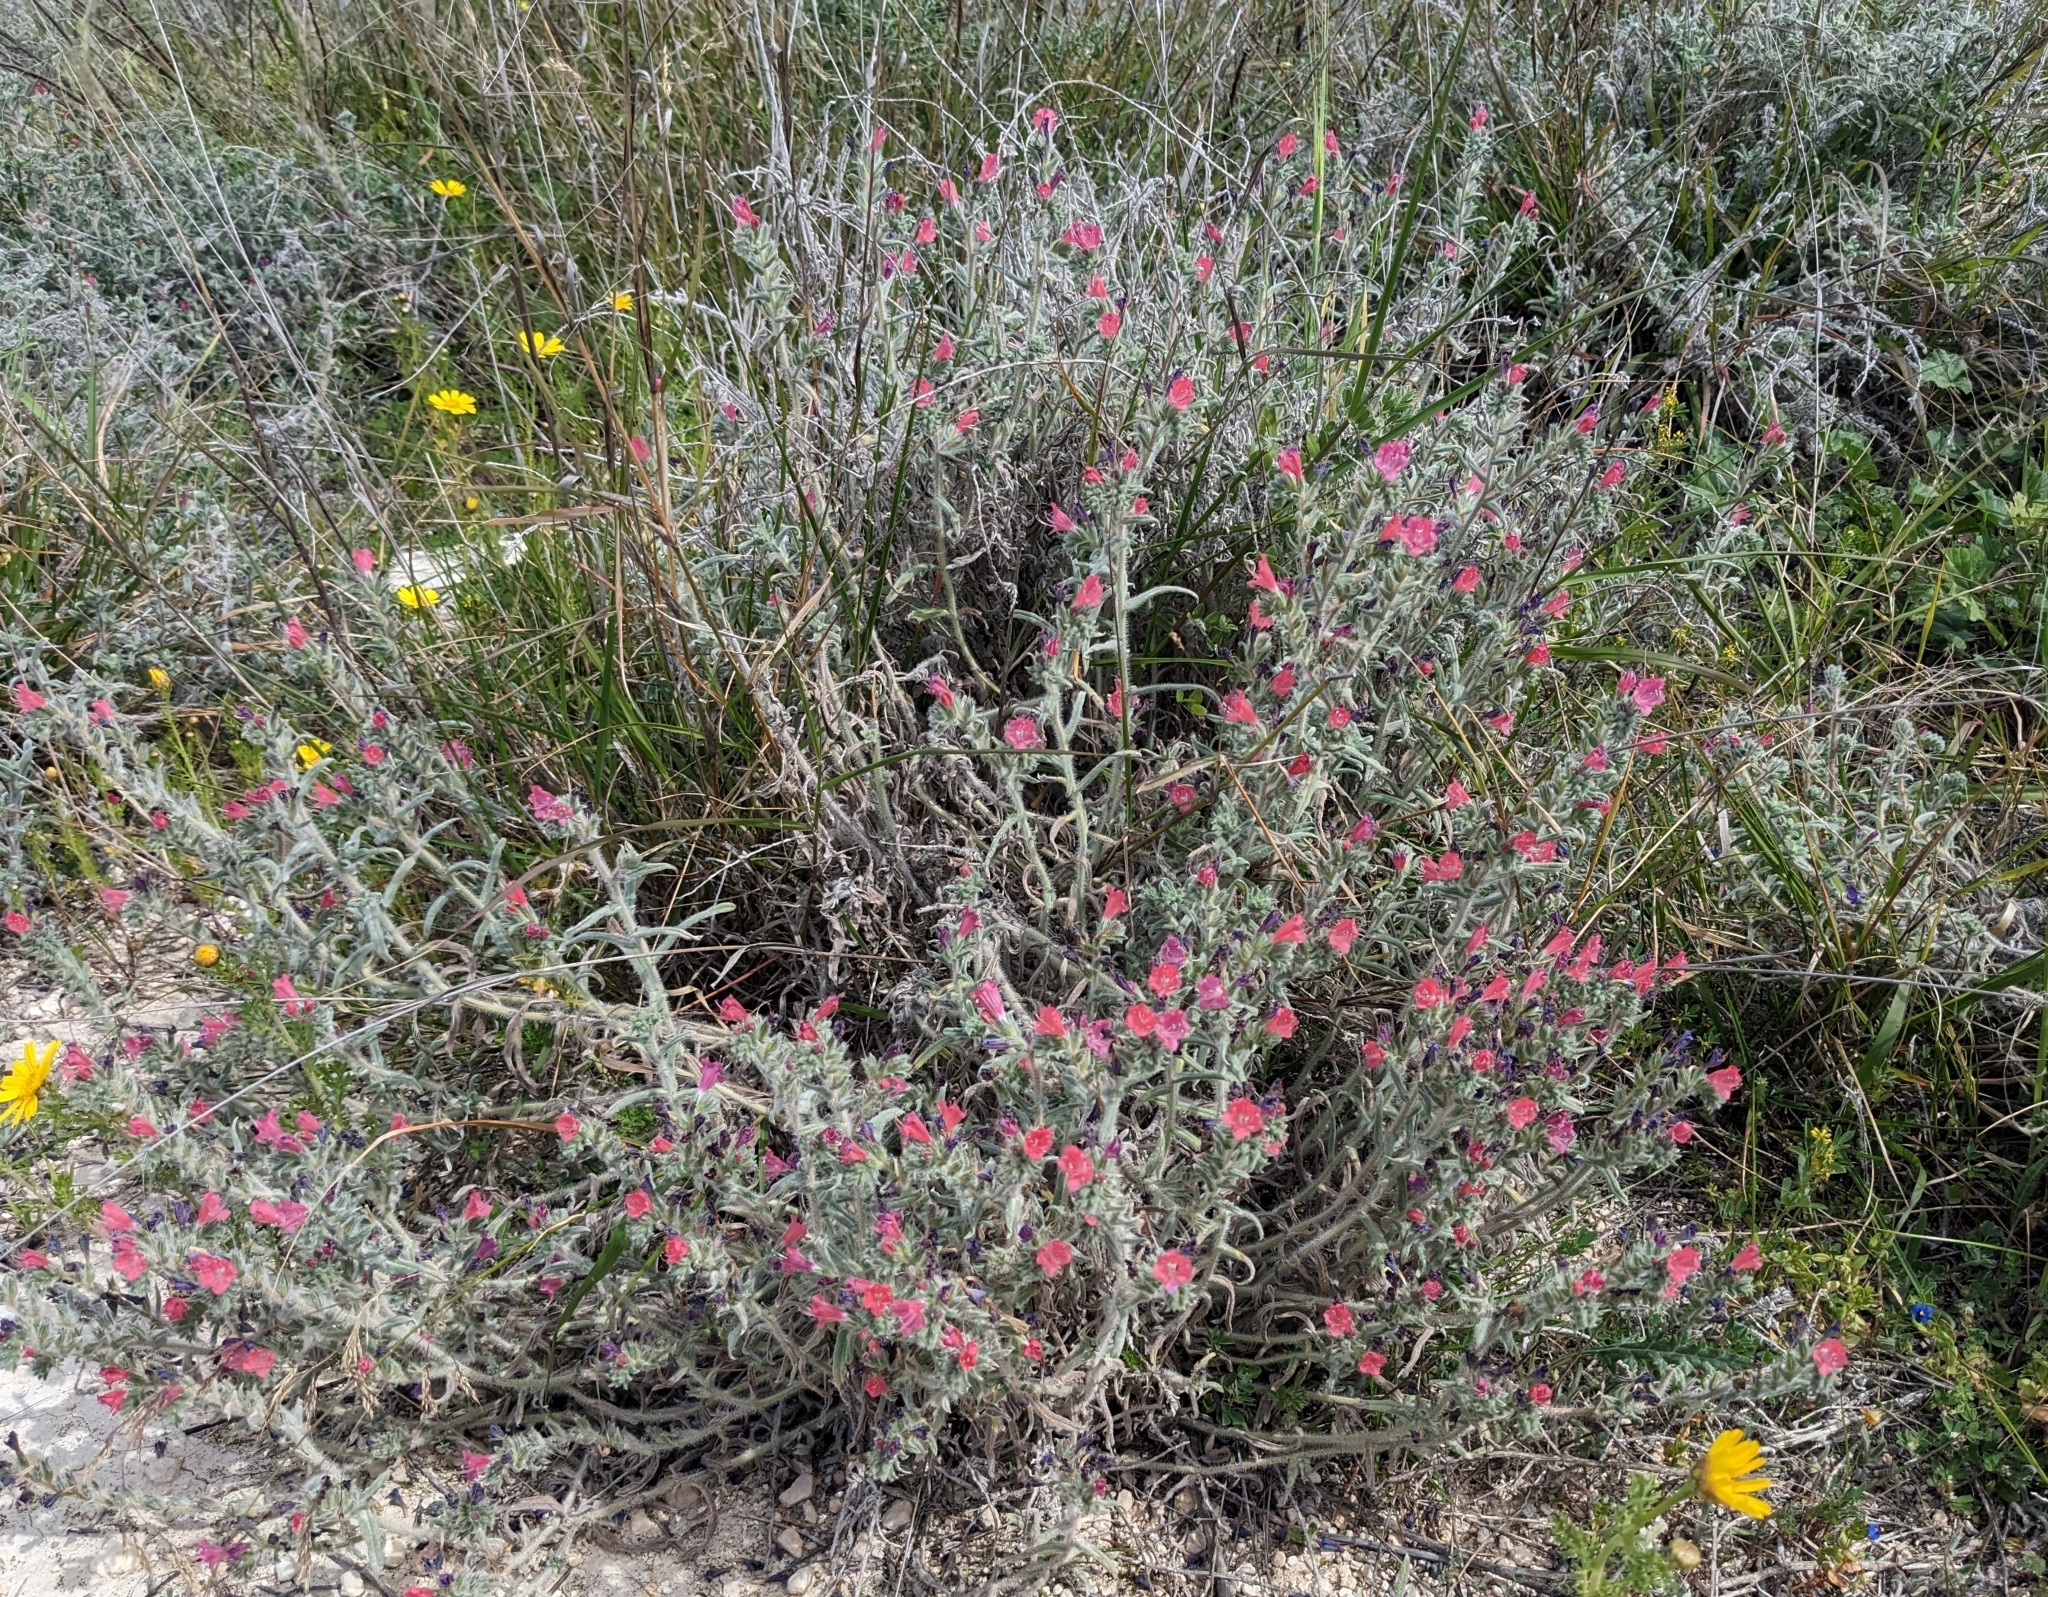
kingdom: Plantae
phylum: Tracheophyta
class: Magnoliopsida
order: Boraginales
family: Boraginaceae
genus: Echium
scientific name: Echium angustifolium
